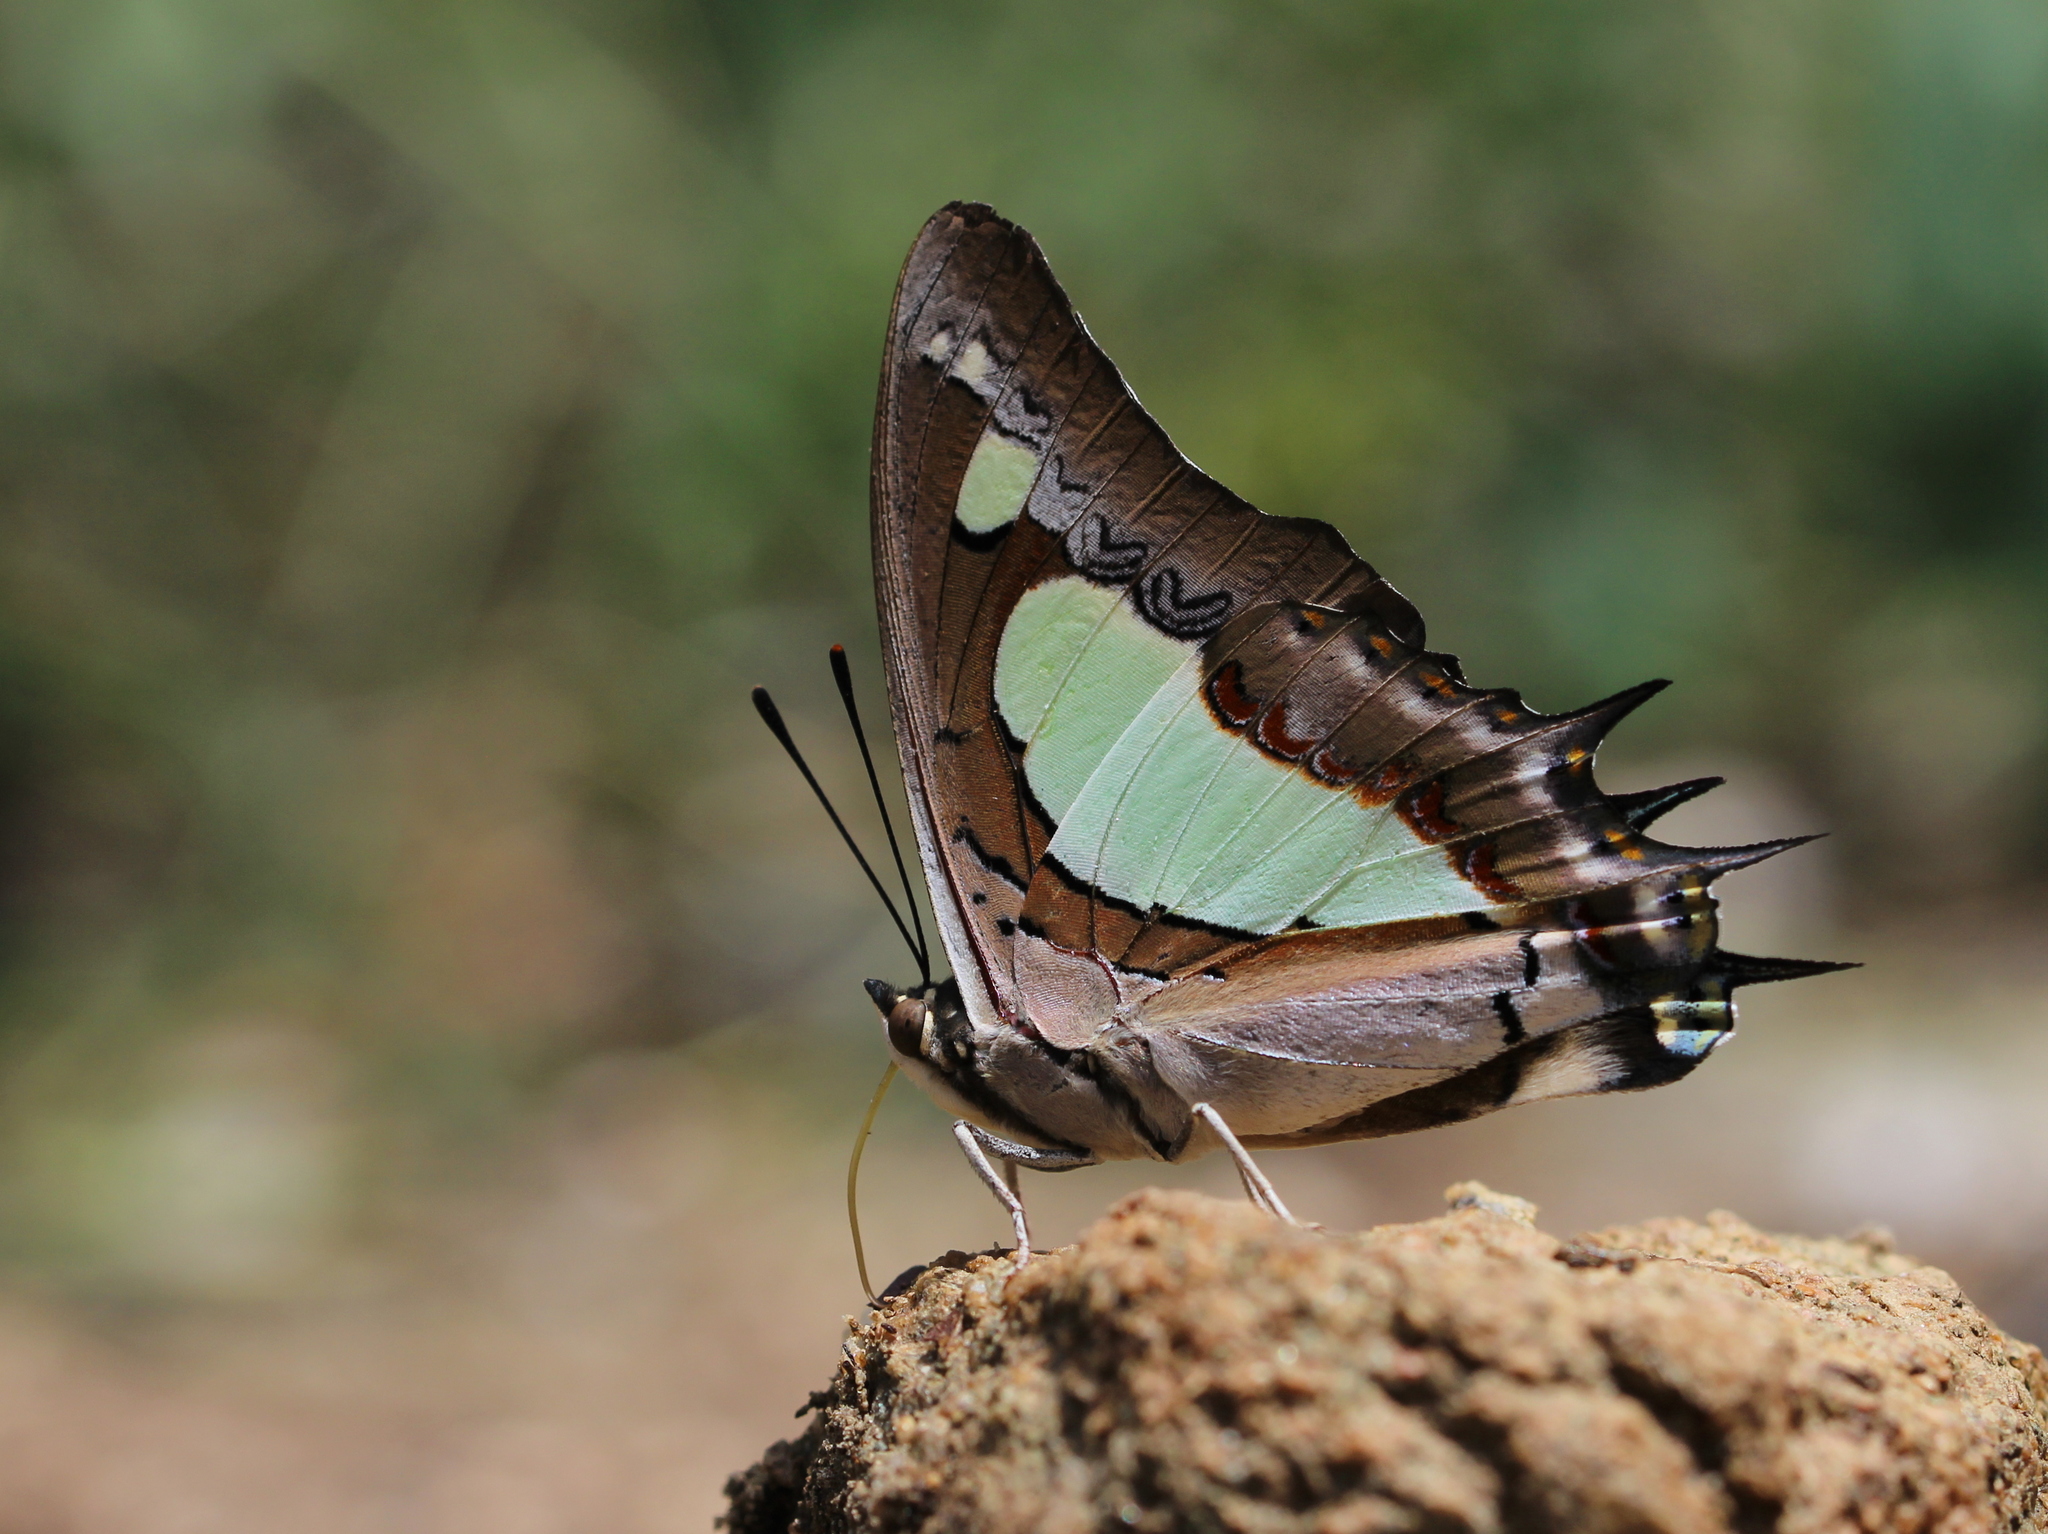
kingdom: Animalia
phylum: Arthropoda
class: Insecta
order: Lepidoptera
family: Nymphalidae
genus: Polyura
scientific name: Polyura agrarius
